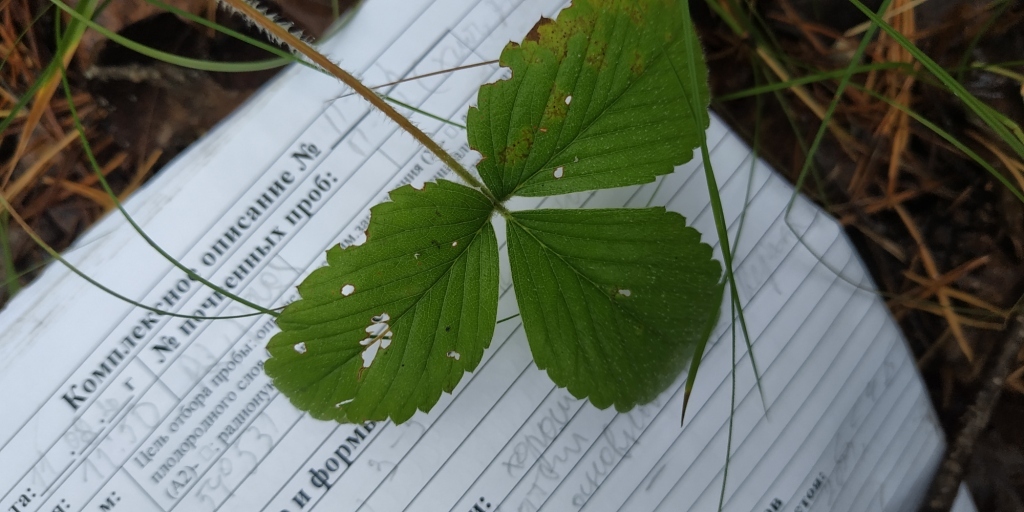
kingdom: Plantae
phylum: Tracheophyta
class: Magnoliopsida
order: Rosales
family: Rosaceae
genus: Fragaria
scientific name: Fragaria viridis
